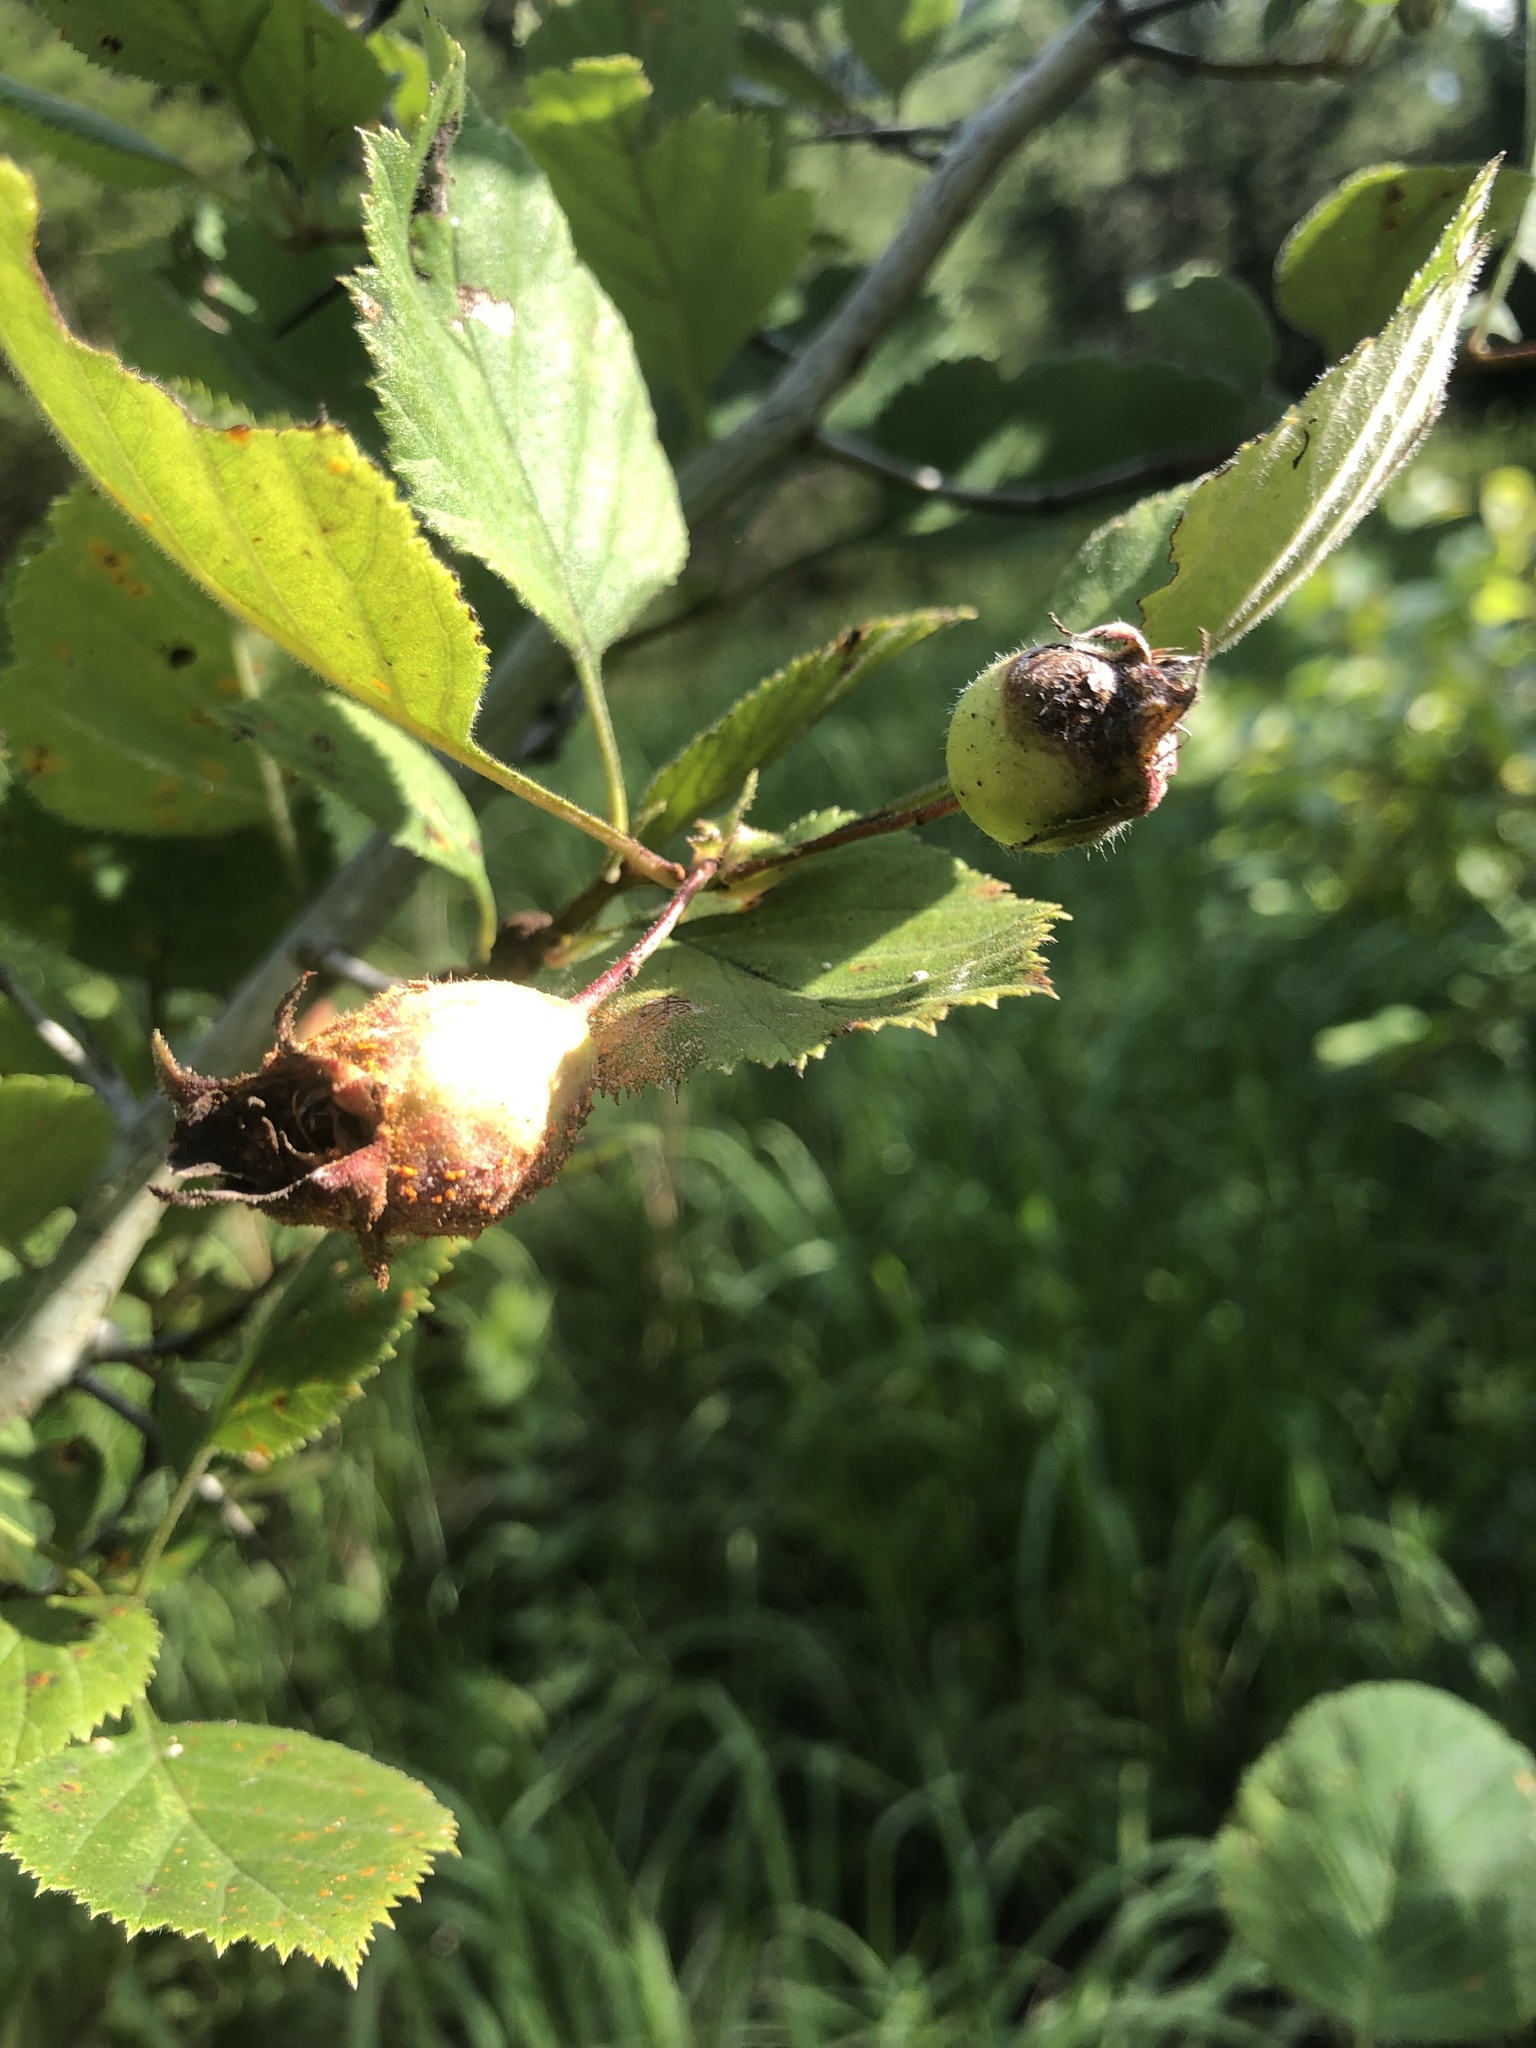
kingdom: Plantae
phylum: Tracheophyta
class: Magnoliopsida
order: Rosales
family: Rosaceae
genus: Crataegus
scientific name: Crataegus triflora
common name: Three-flower hawthorn
